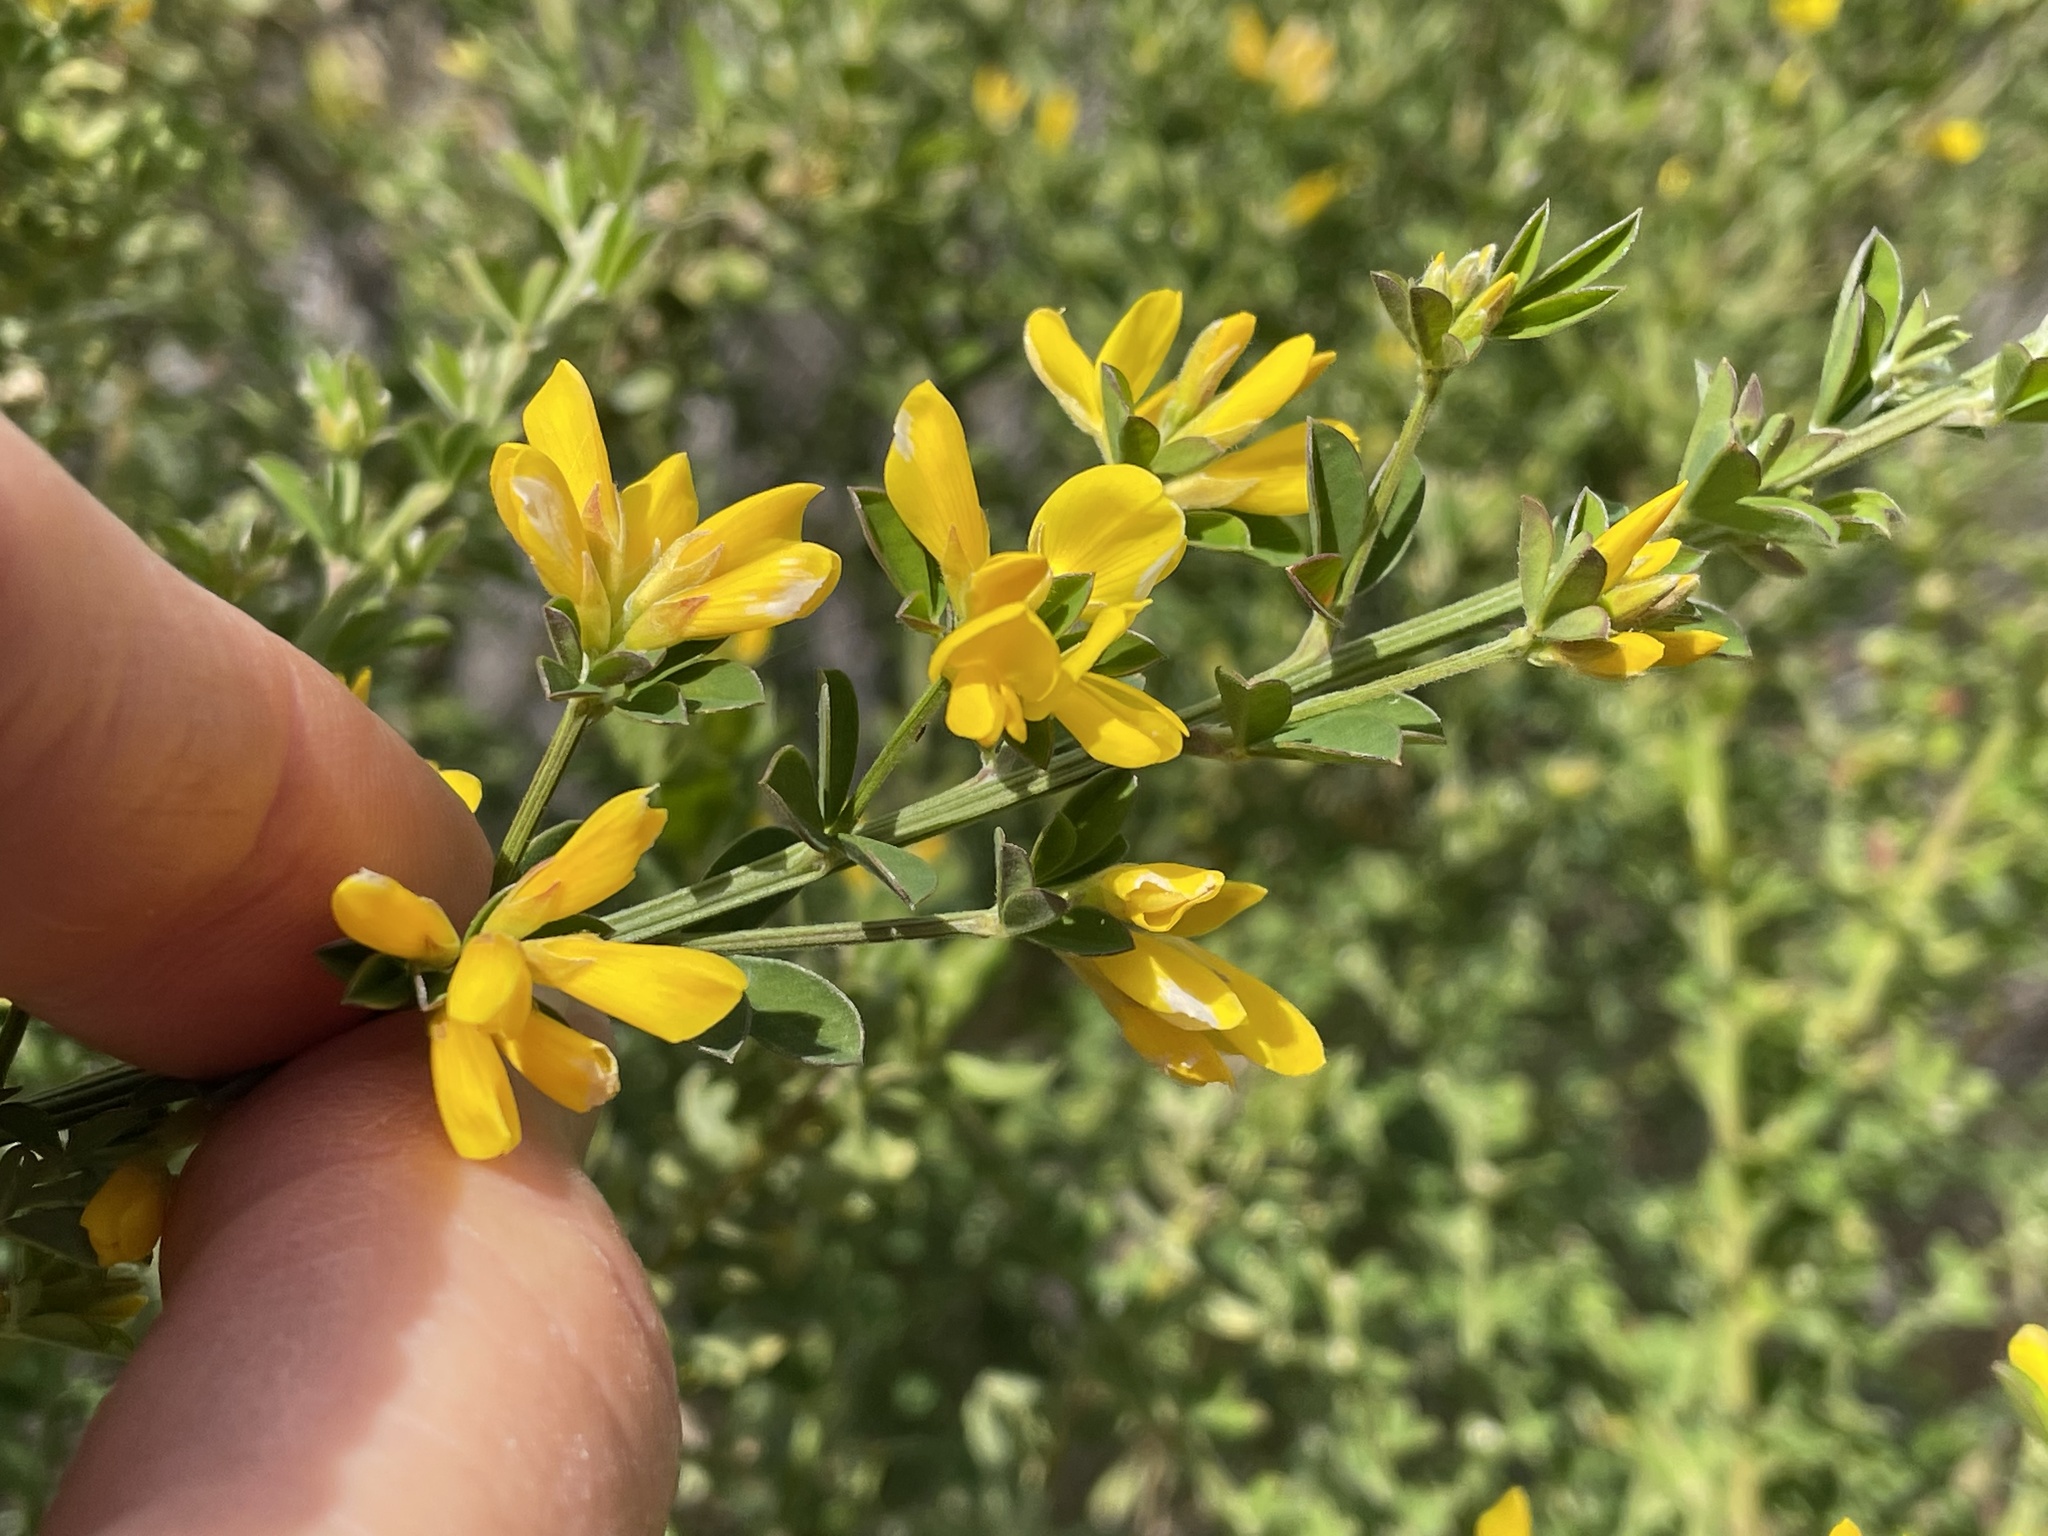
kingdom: Plantae
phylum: Tracheophyta
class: Magnoliopsida
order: Fabales
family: Fabaceae
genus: Genista
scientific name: Genista monspessulana
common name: Montpellier broom
